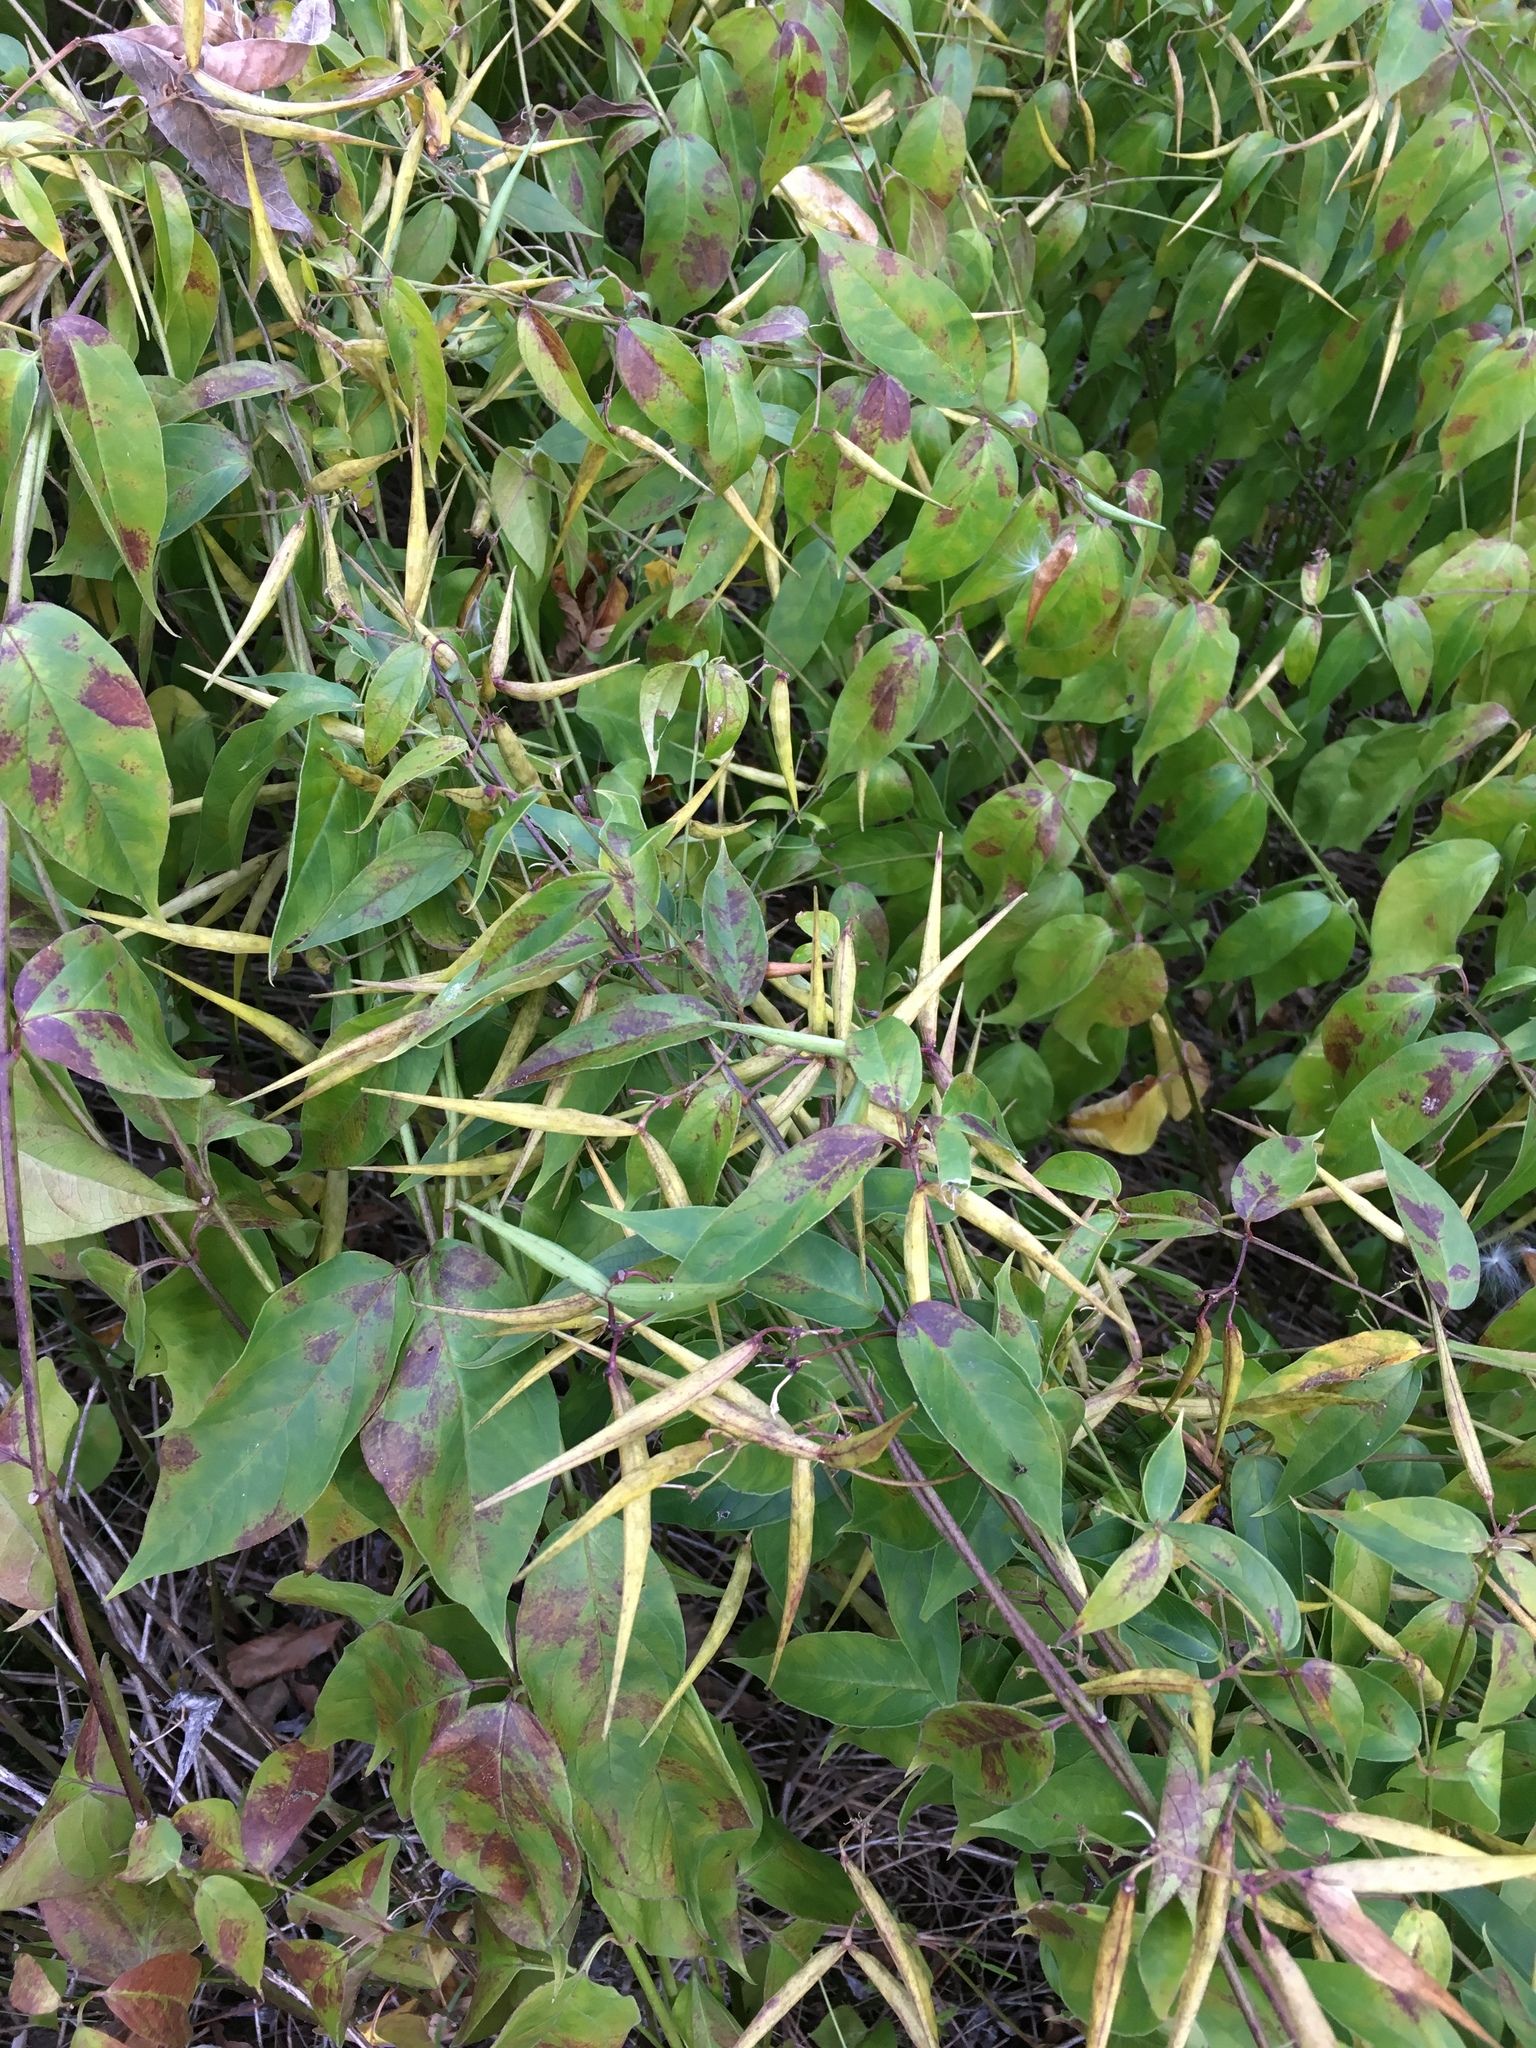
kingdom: Plantae
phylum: Tracheophyta
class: Magnoliopsida
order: Gentianales
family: Apocynaceae
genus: Vincetoxicum
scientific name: Vincetoxicum rossicum
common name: Dog-strangling vine
